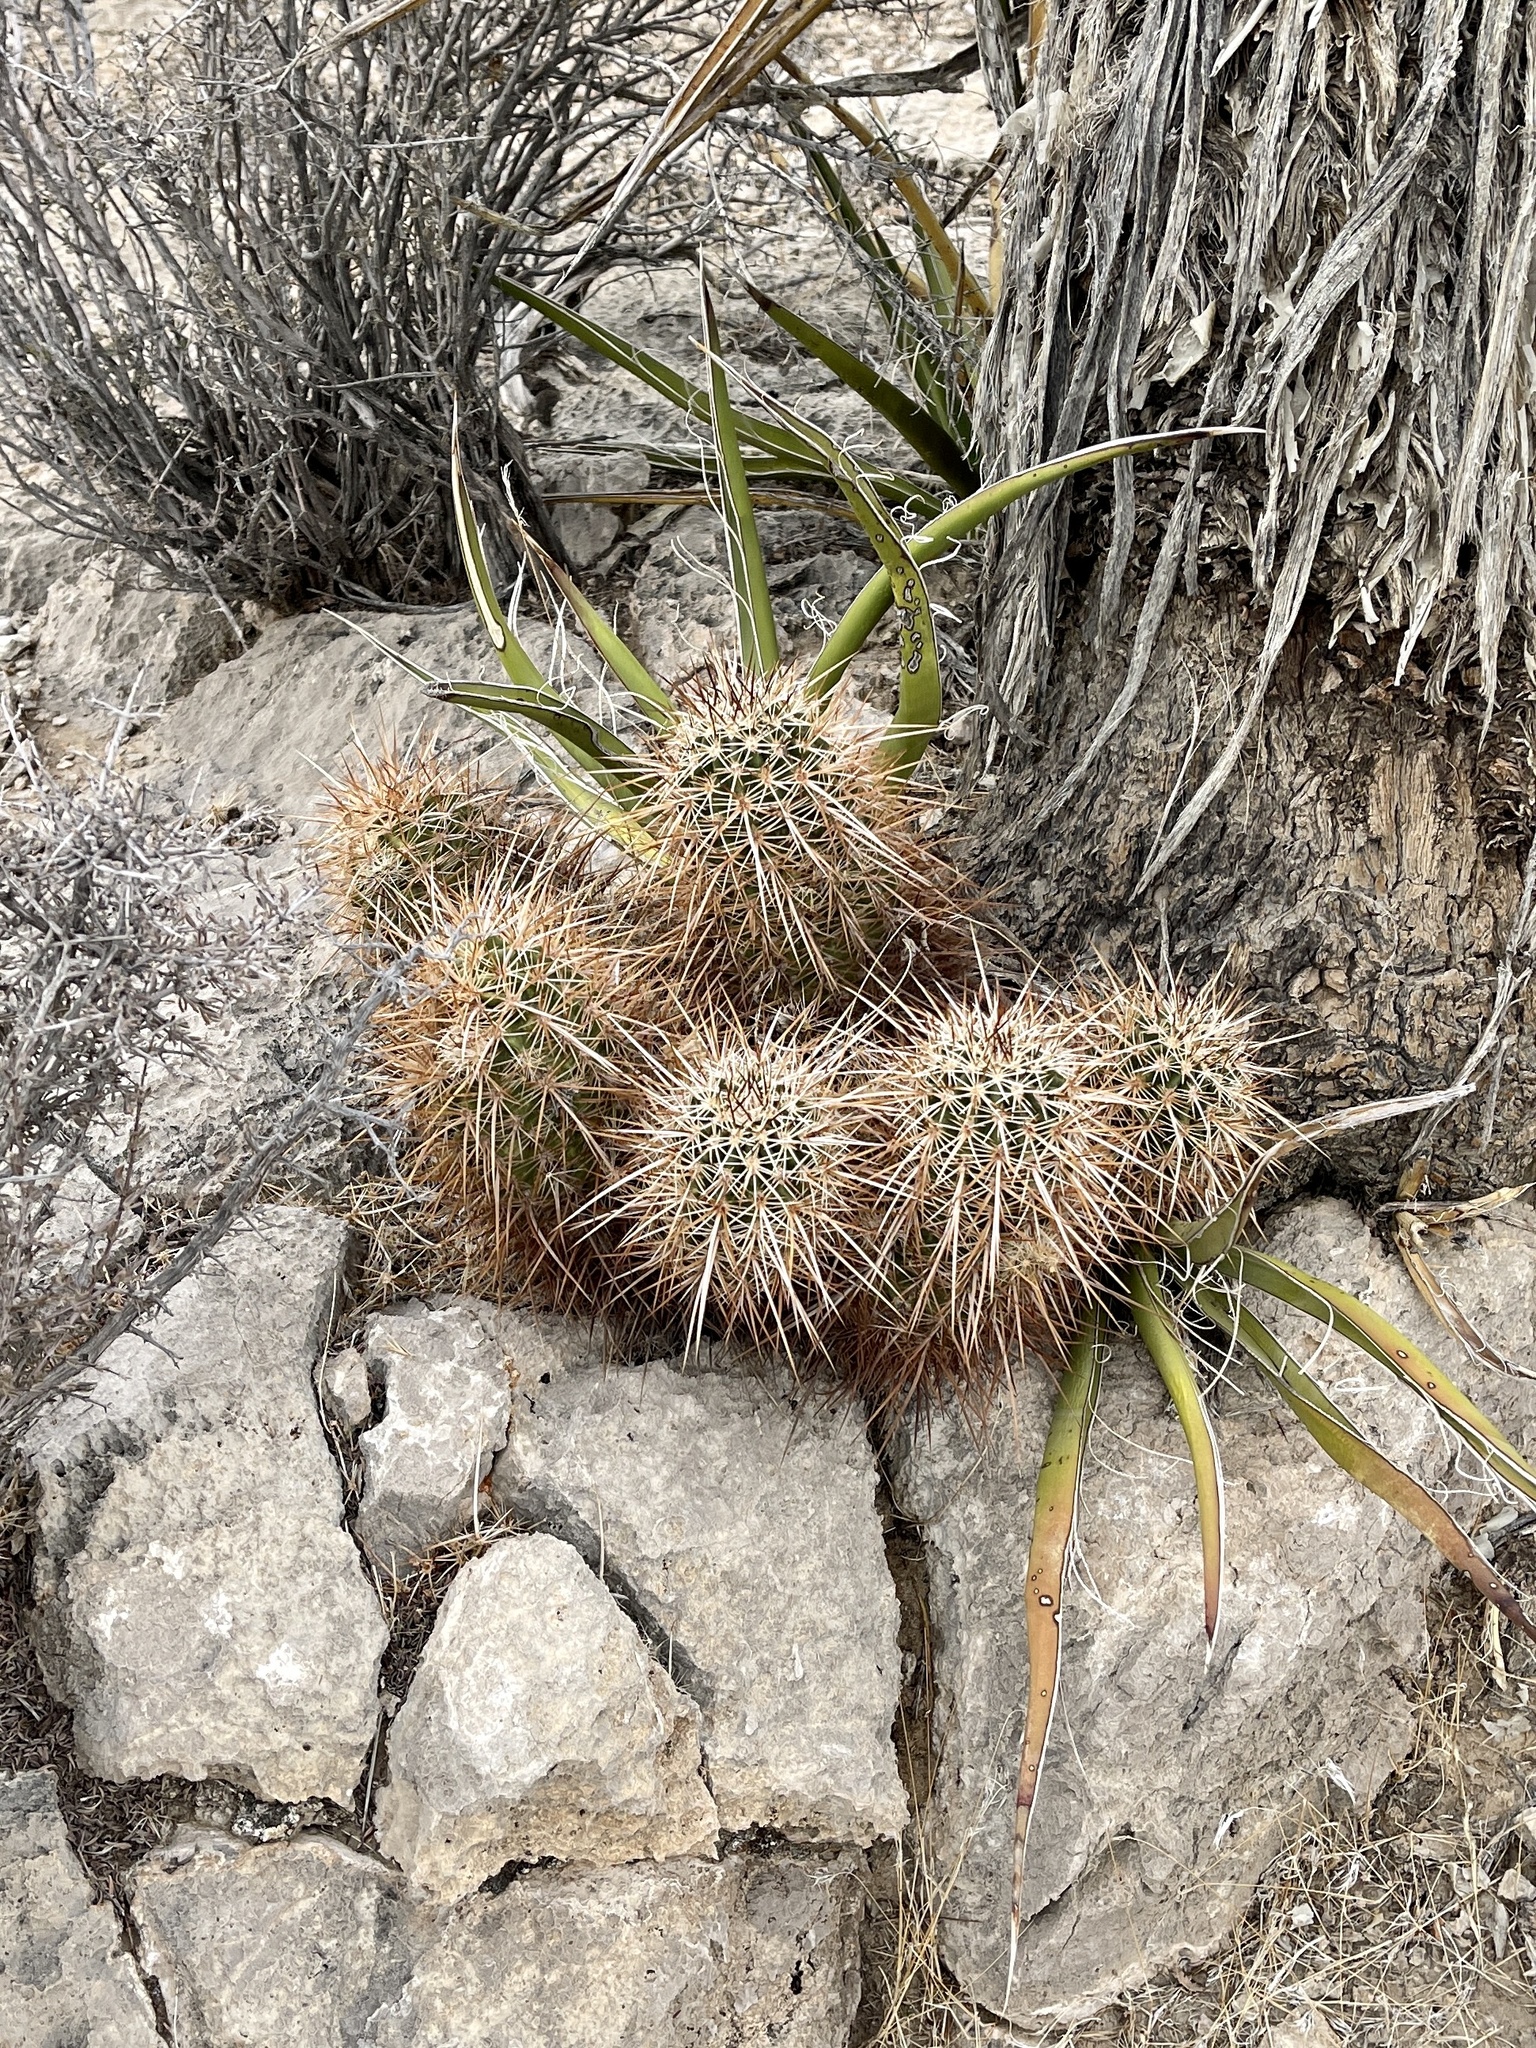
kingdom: Plantae
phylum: Tracheophyta
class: Magnoliopsida
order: Caryophyllales
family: Cactaceae
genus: Echinocereus
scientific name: Echinocereus engelmannii
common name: Engelmann's hedgehog cactus
